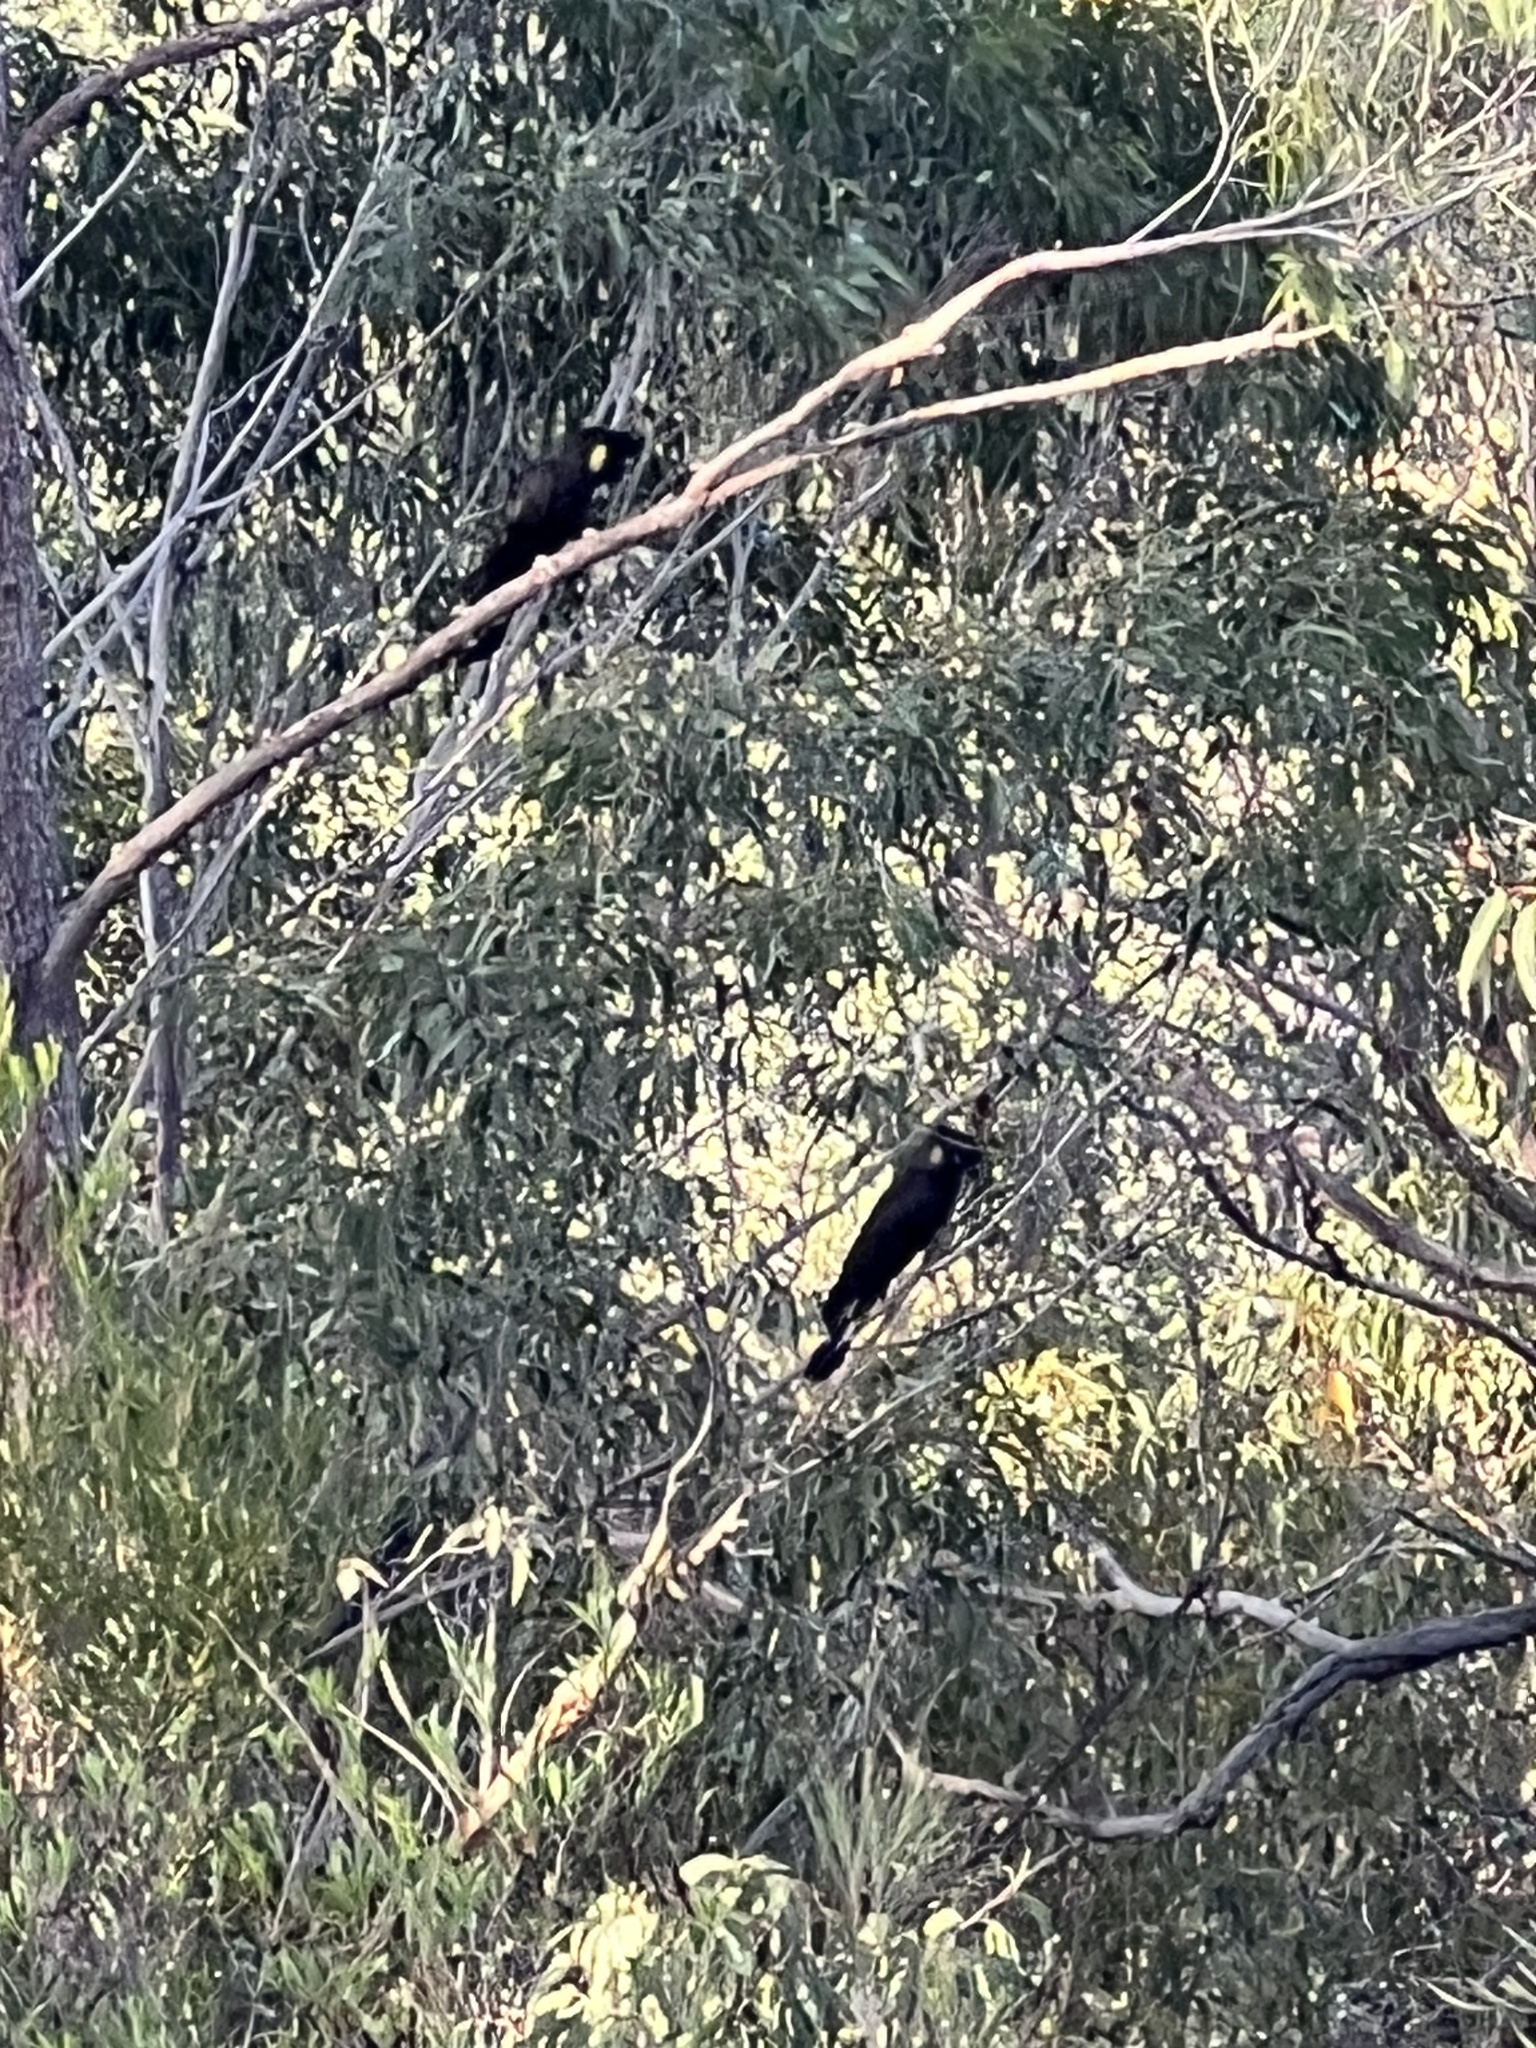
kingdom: Animalia
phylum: Chordata
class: Aves
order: Psittaciformes
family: Cacatuidae
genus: Zanda
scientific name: Zanda funerea
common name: Yellow-tailed black-cockatoo
